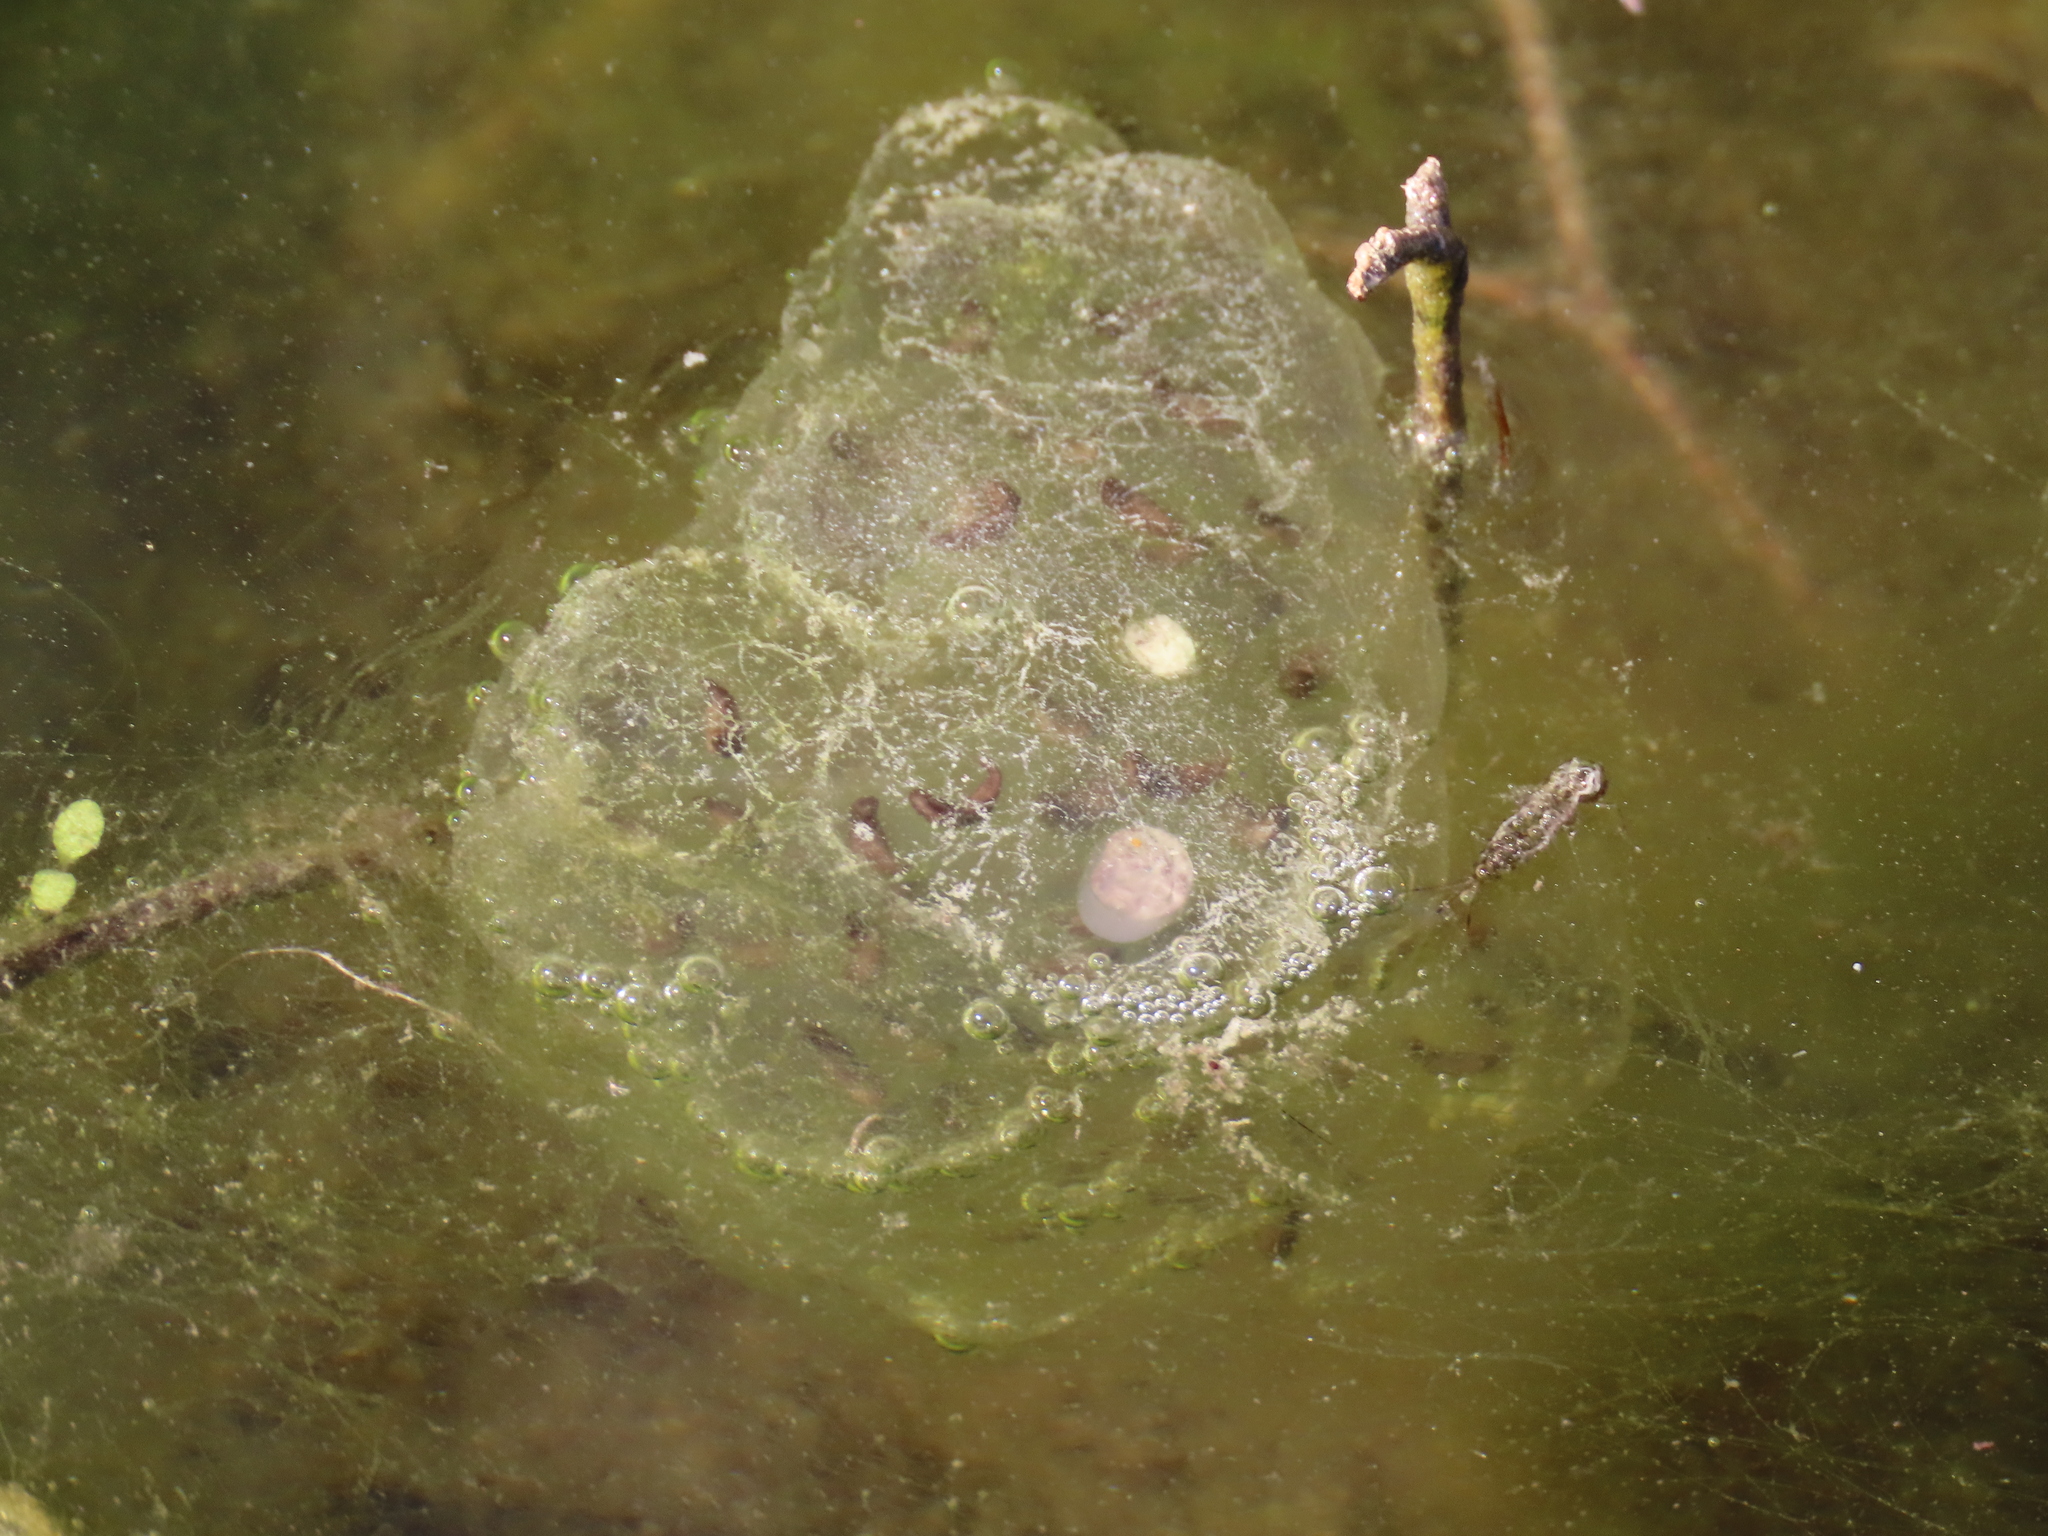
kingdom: Animalia
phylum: Chordata
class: Amphibia
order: Caudata
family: Ambystomatidae
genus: Ambystoma
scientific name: Ambystoma
